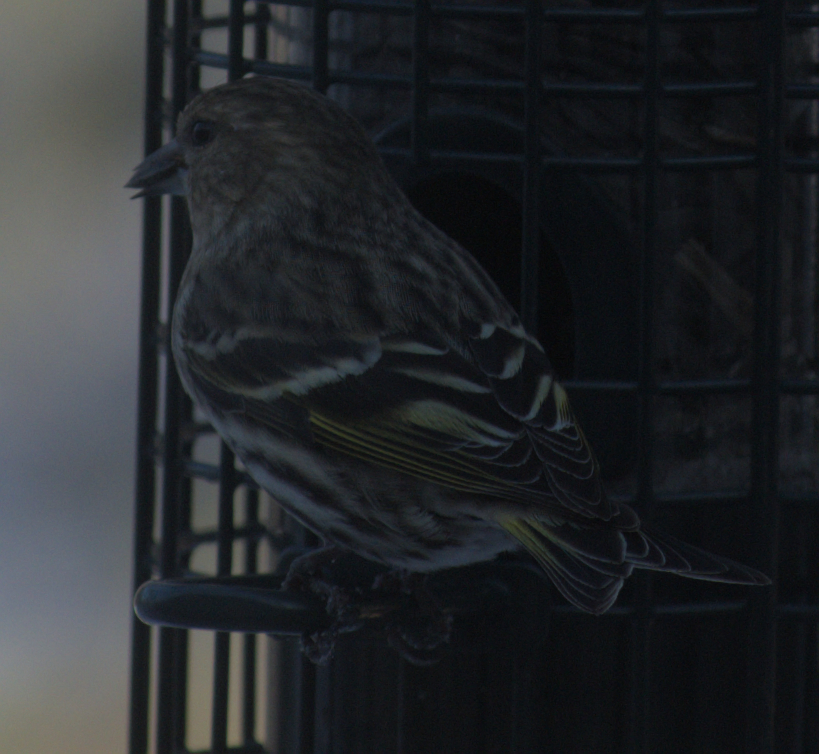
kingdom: Animalia
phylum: Chordata
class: Aves
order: Passeriformes
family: Fringillidae
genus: Spinus
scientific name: Spinus pinus
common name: Pine siskin
